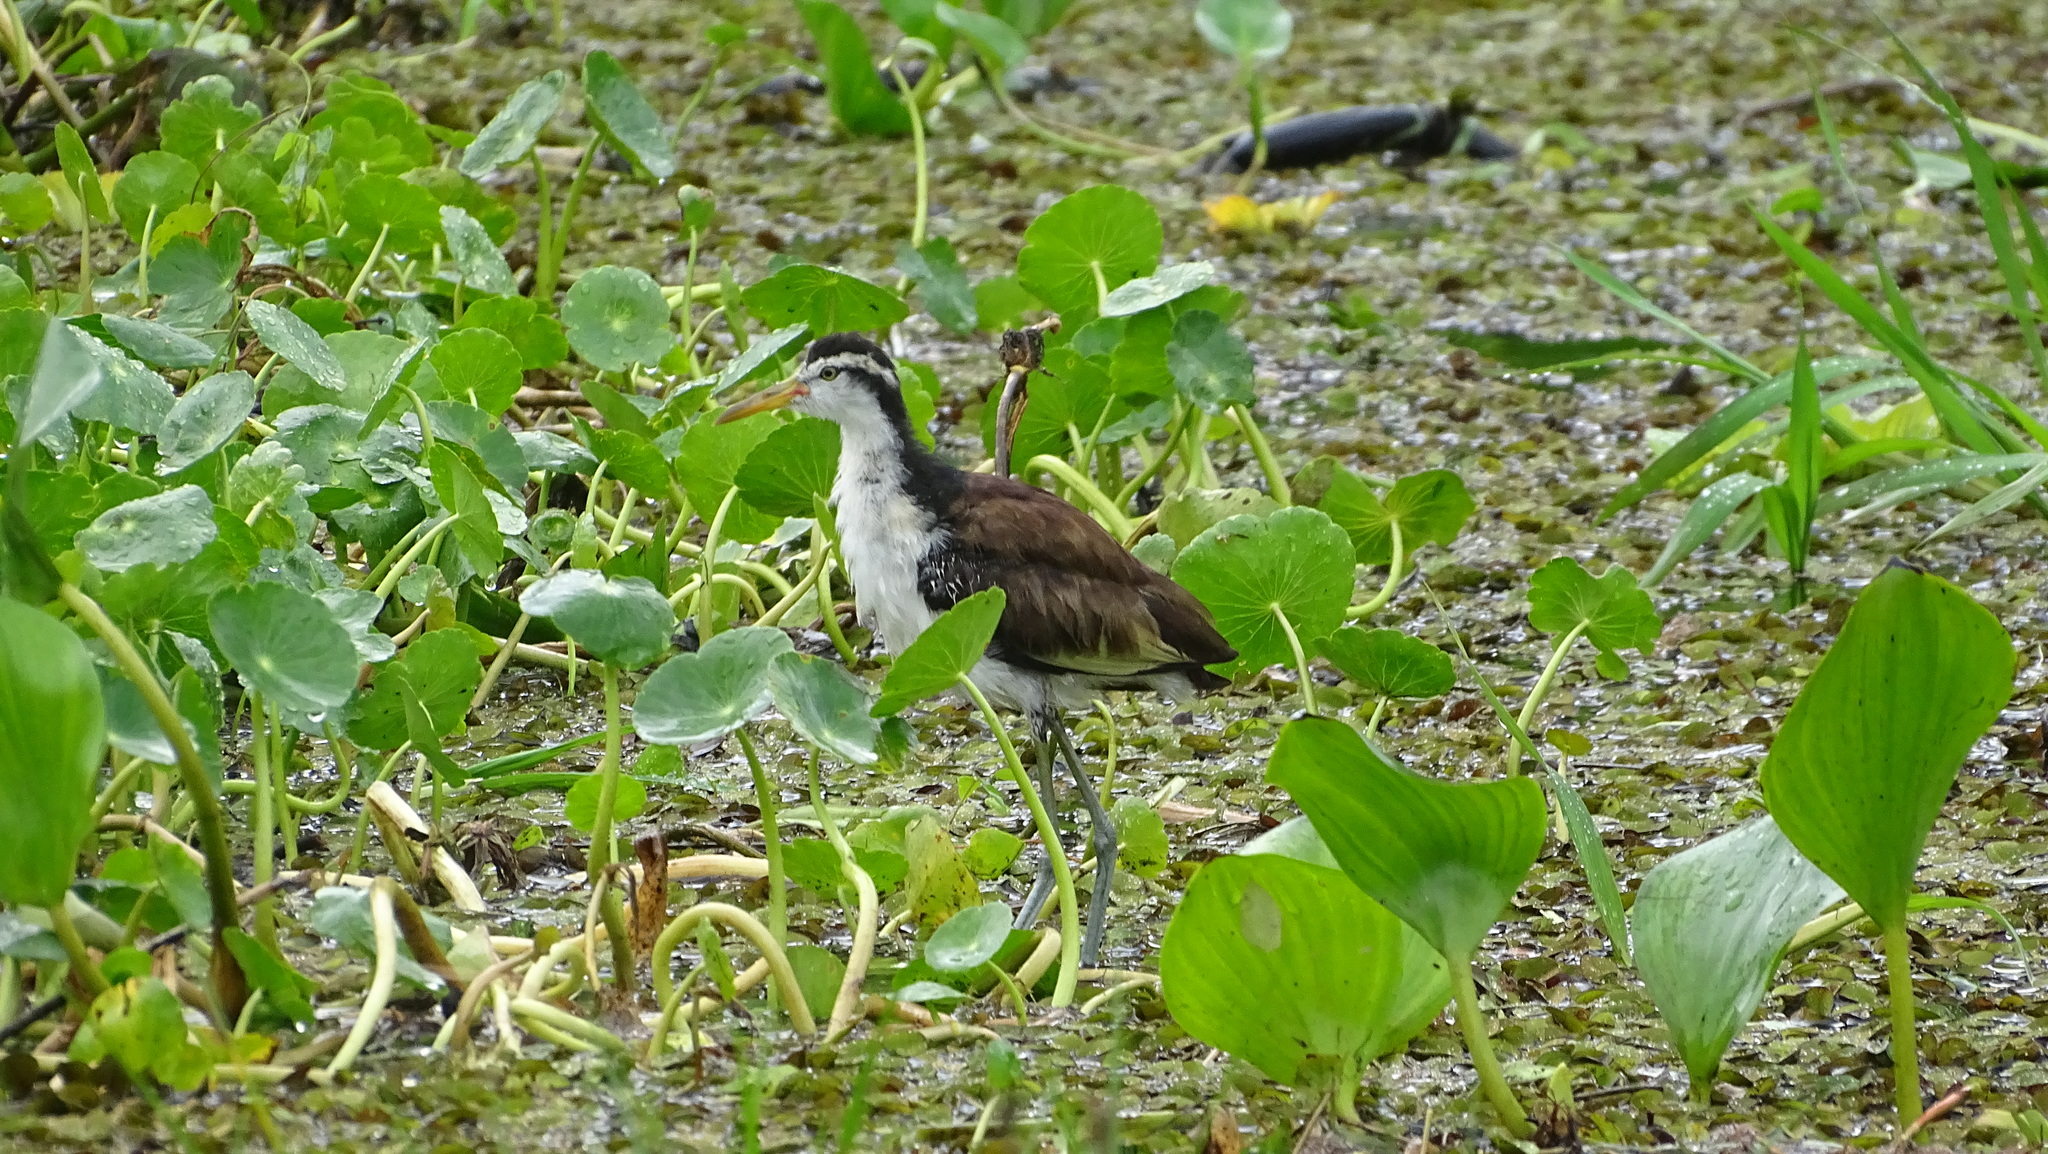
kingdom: Animalia
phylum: Chordata
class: Aves
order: Charadriiformes
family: Jacanidae
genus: Jacana
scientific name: Jacana jacana
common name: Wattled jacana
